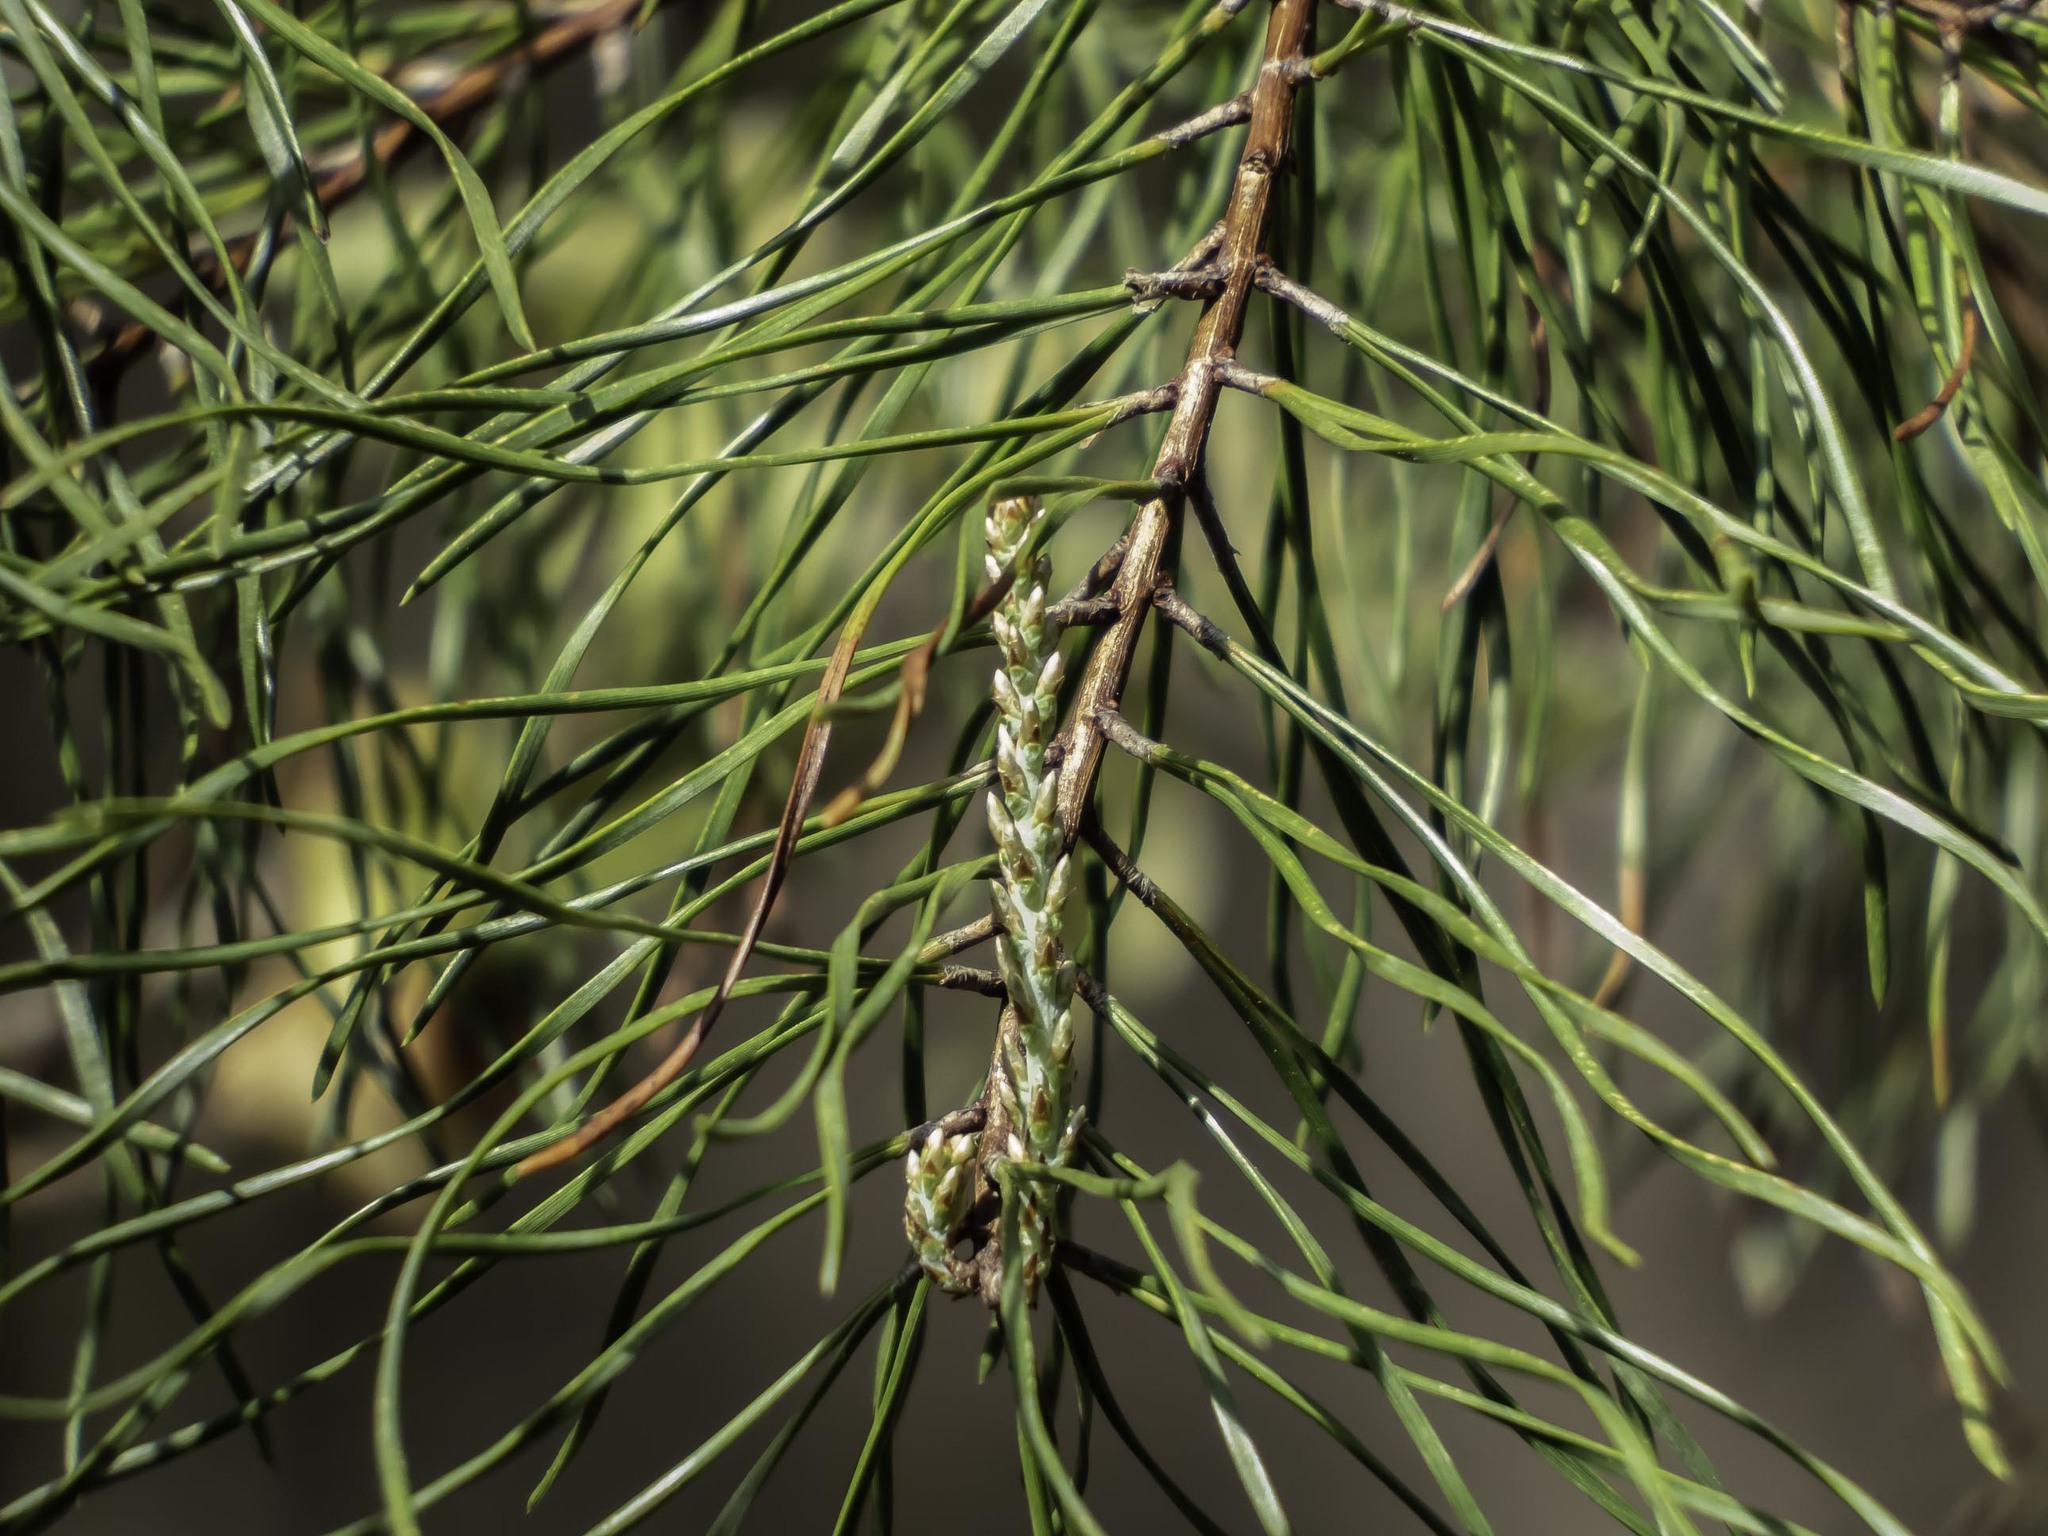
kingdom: Plantae
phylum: Tracheophyta
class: Pinopsida
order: Pinales
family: Pinaceae
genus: Pinus
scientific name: Pinus virginiana
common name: Scrub pine
